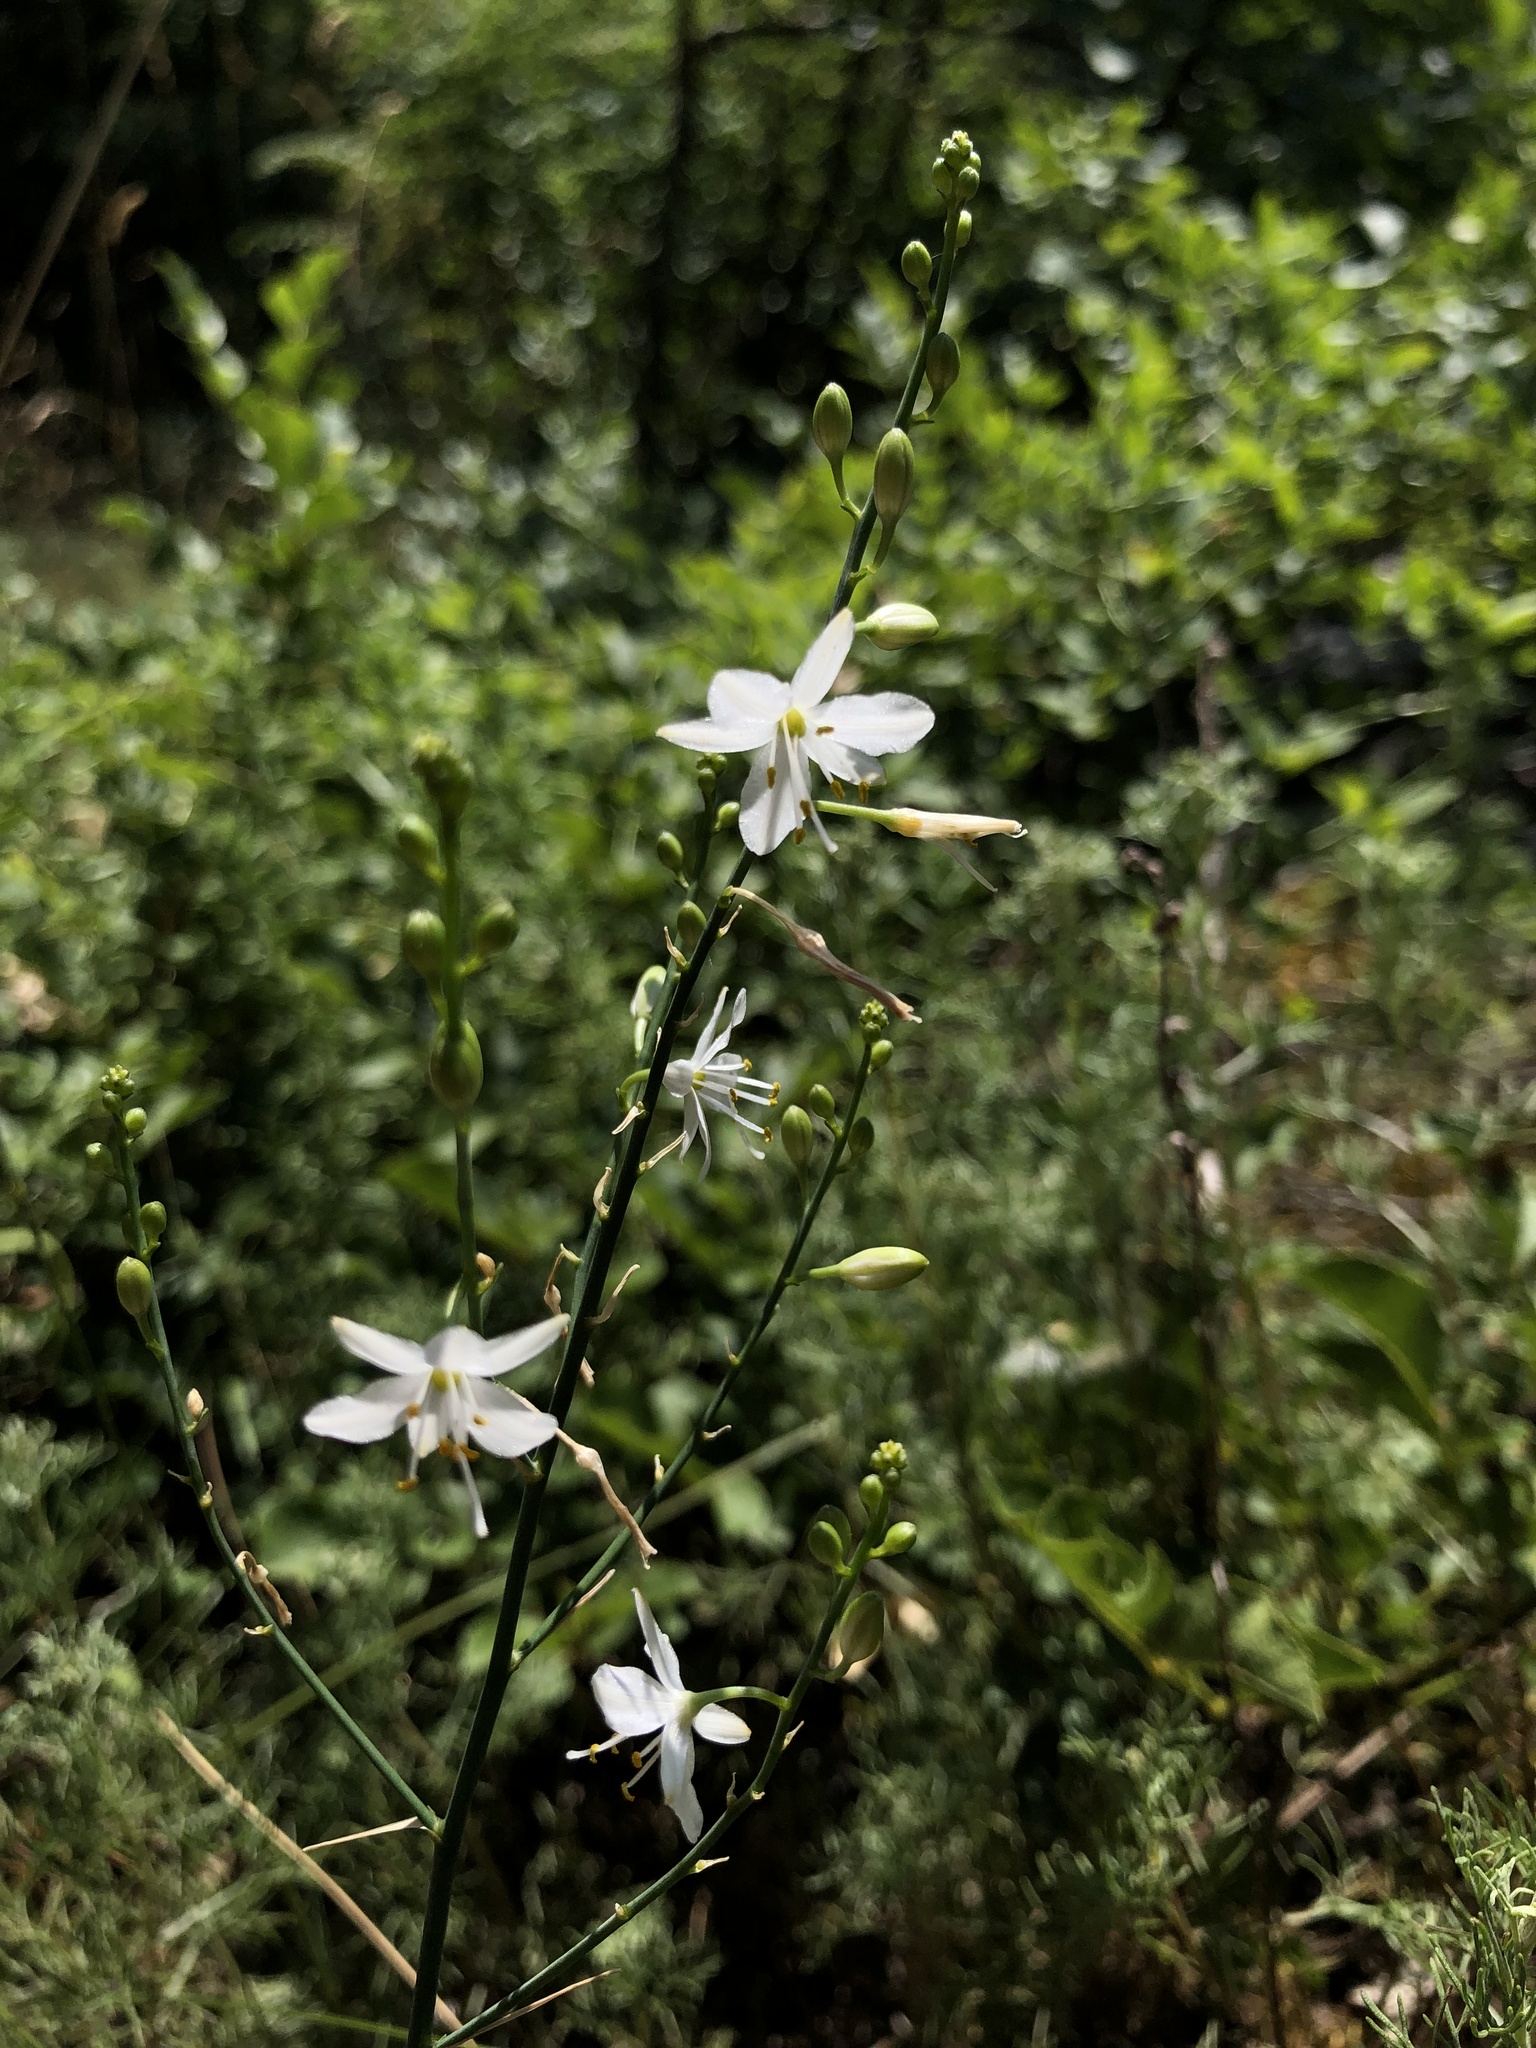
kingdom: Plantae
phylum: Tracheophyta
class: Liliopsida
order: Asparagales
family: Asparagaceae
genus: Anthericum
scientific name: Anthericum ramosum
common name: Branched st. bernard's-lily
